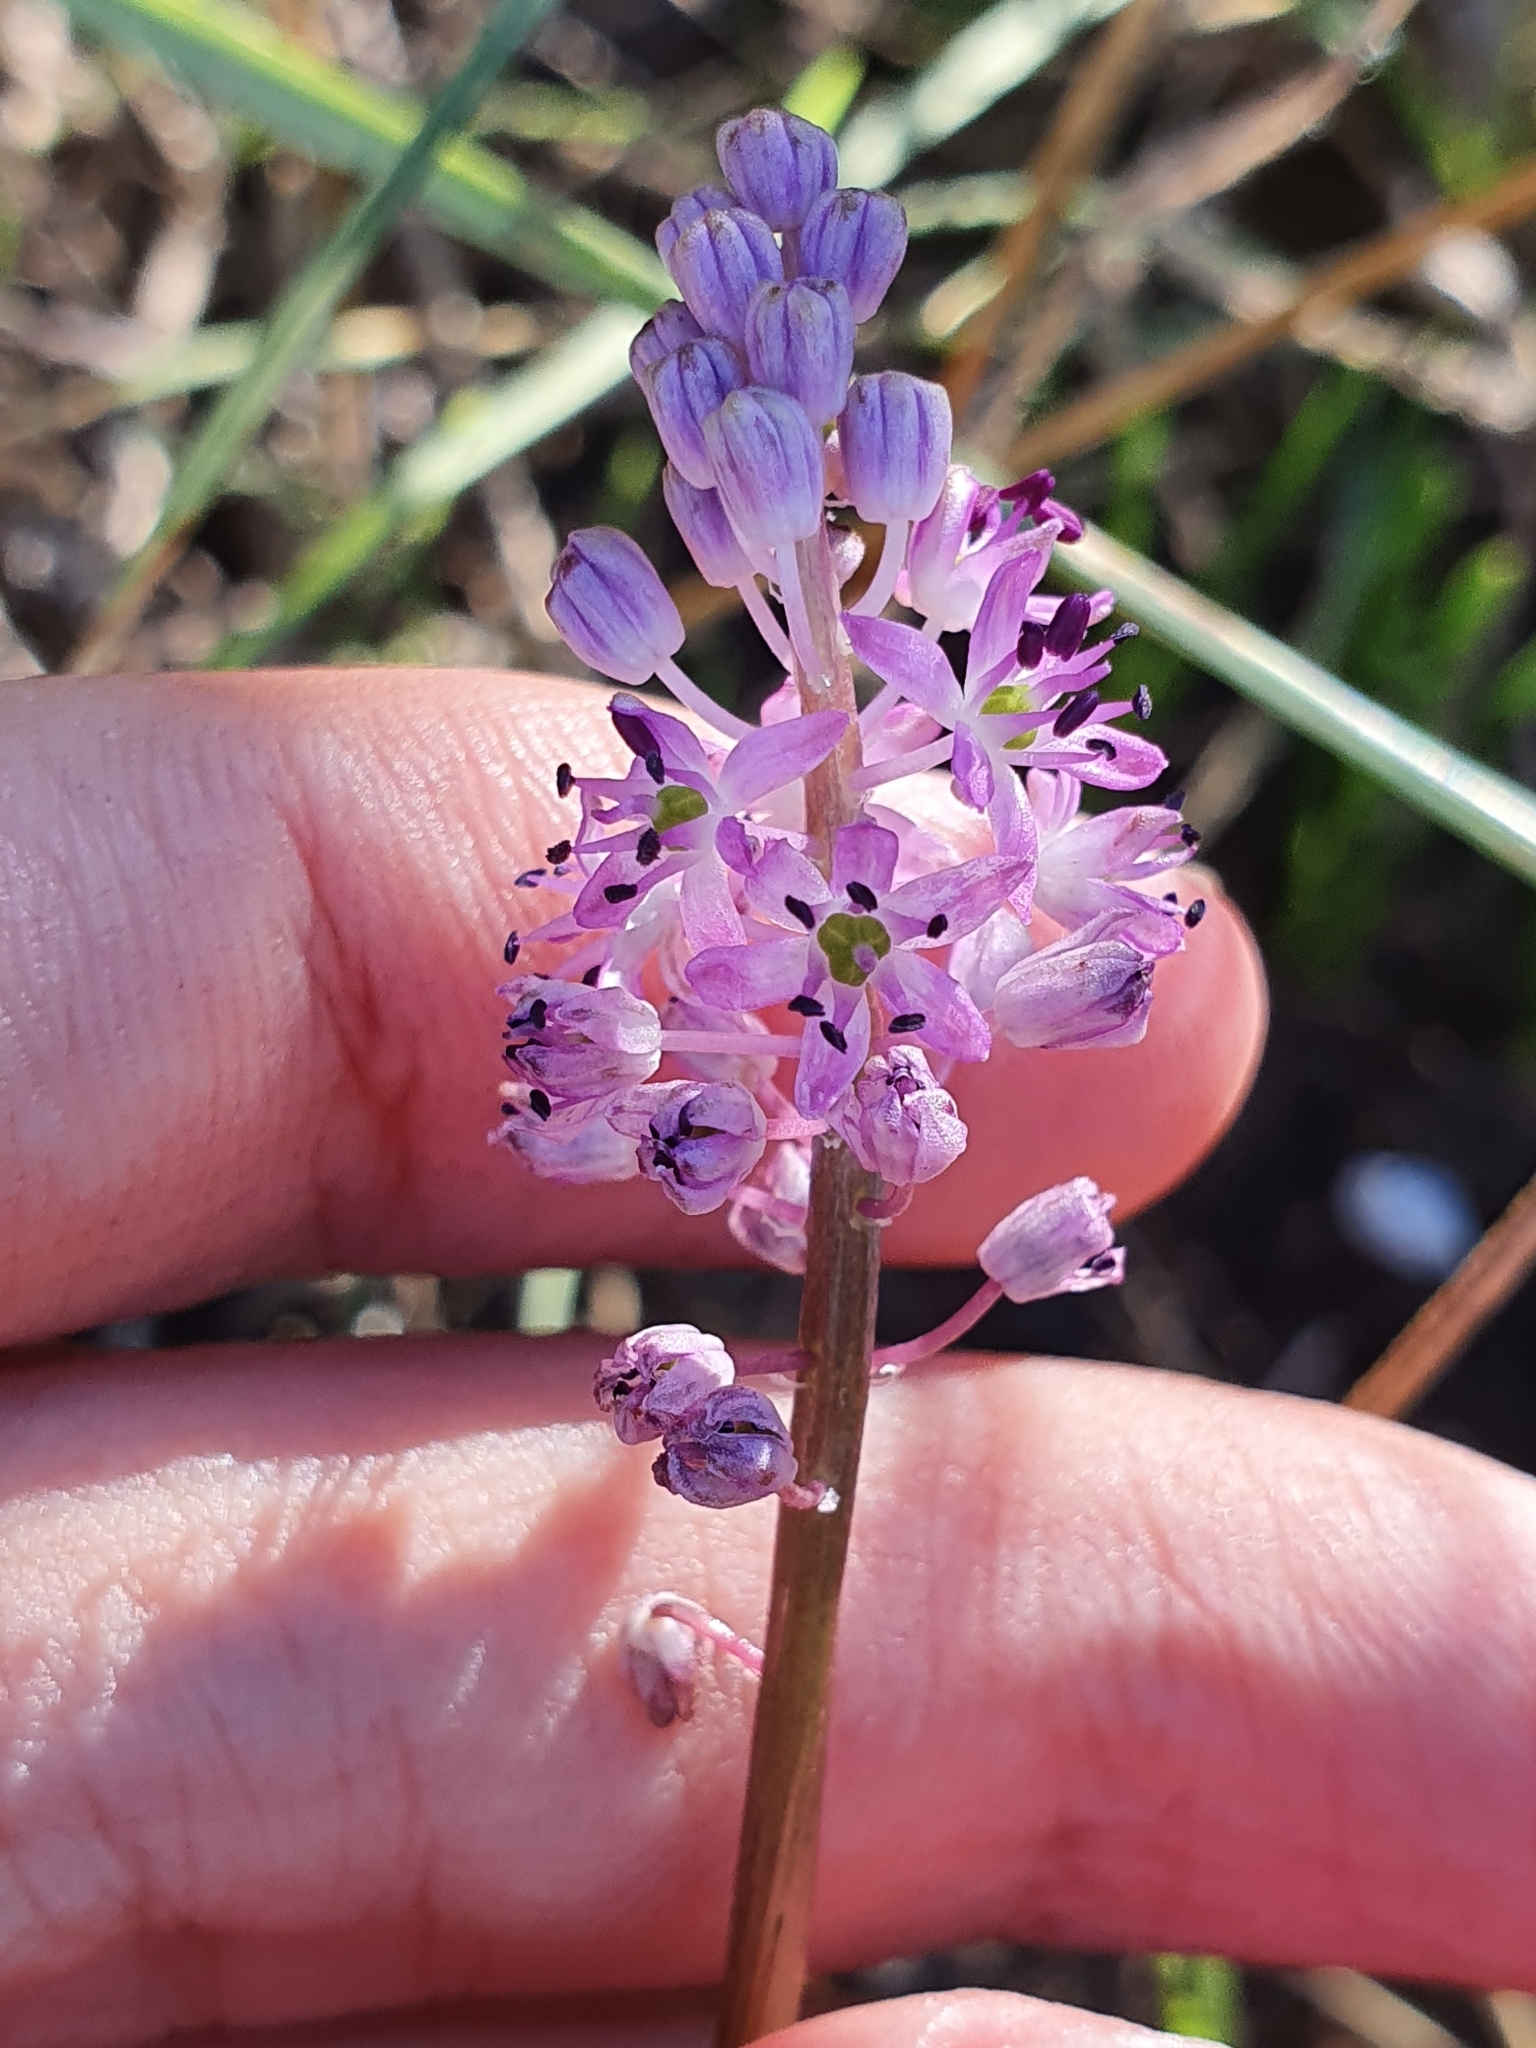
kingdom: Plantae
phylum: Tracheophyta
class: Liliopsida
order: Asparagales
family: Asparagaceae
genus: Barnardia
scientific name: Barnardia numidica
